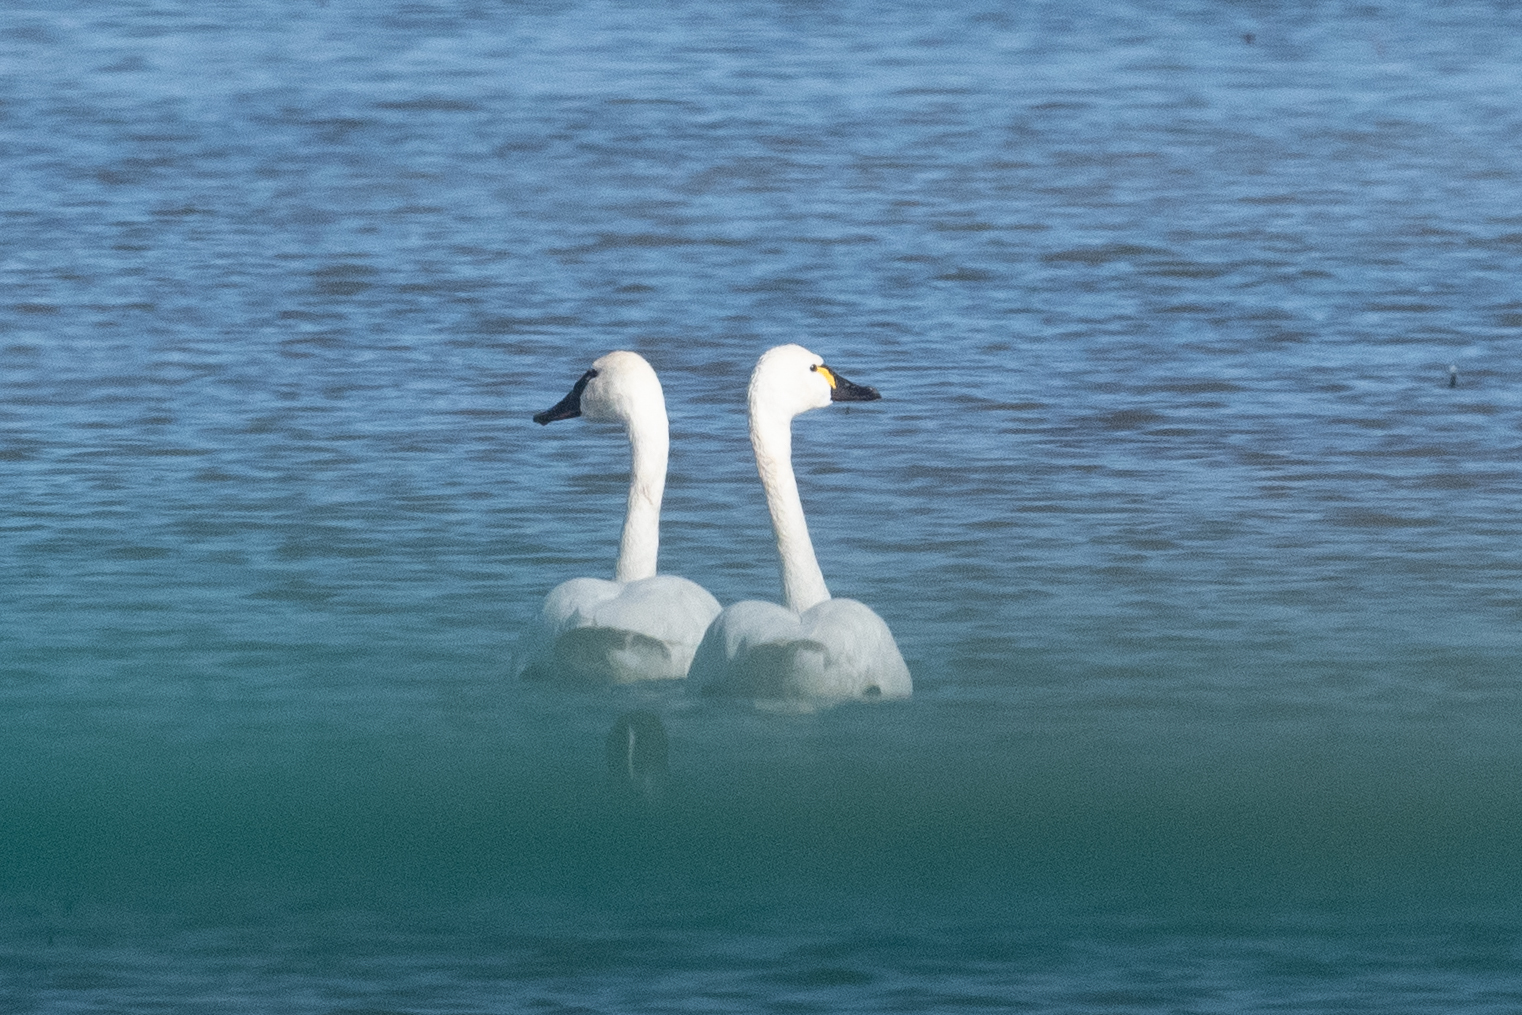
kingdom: Animalia
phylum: Chordata
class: Aves
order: Anseriformes
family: Anatidae
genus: Cygnus
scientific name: Cygnus columbianus
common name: Tundra swan
